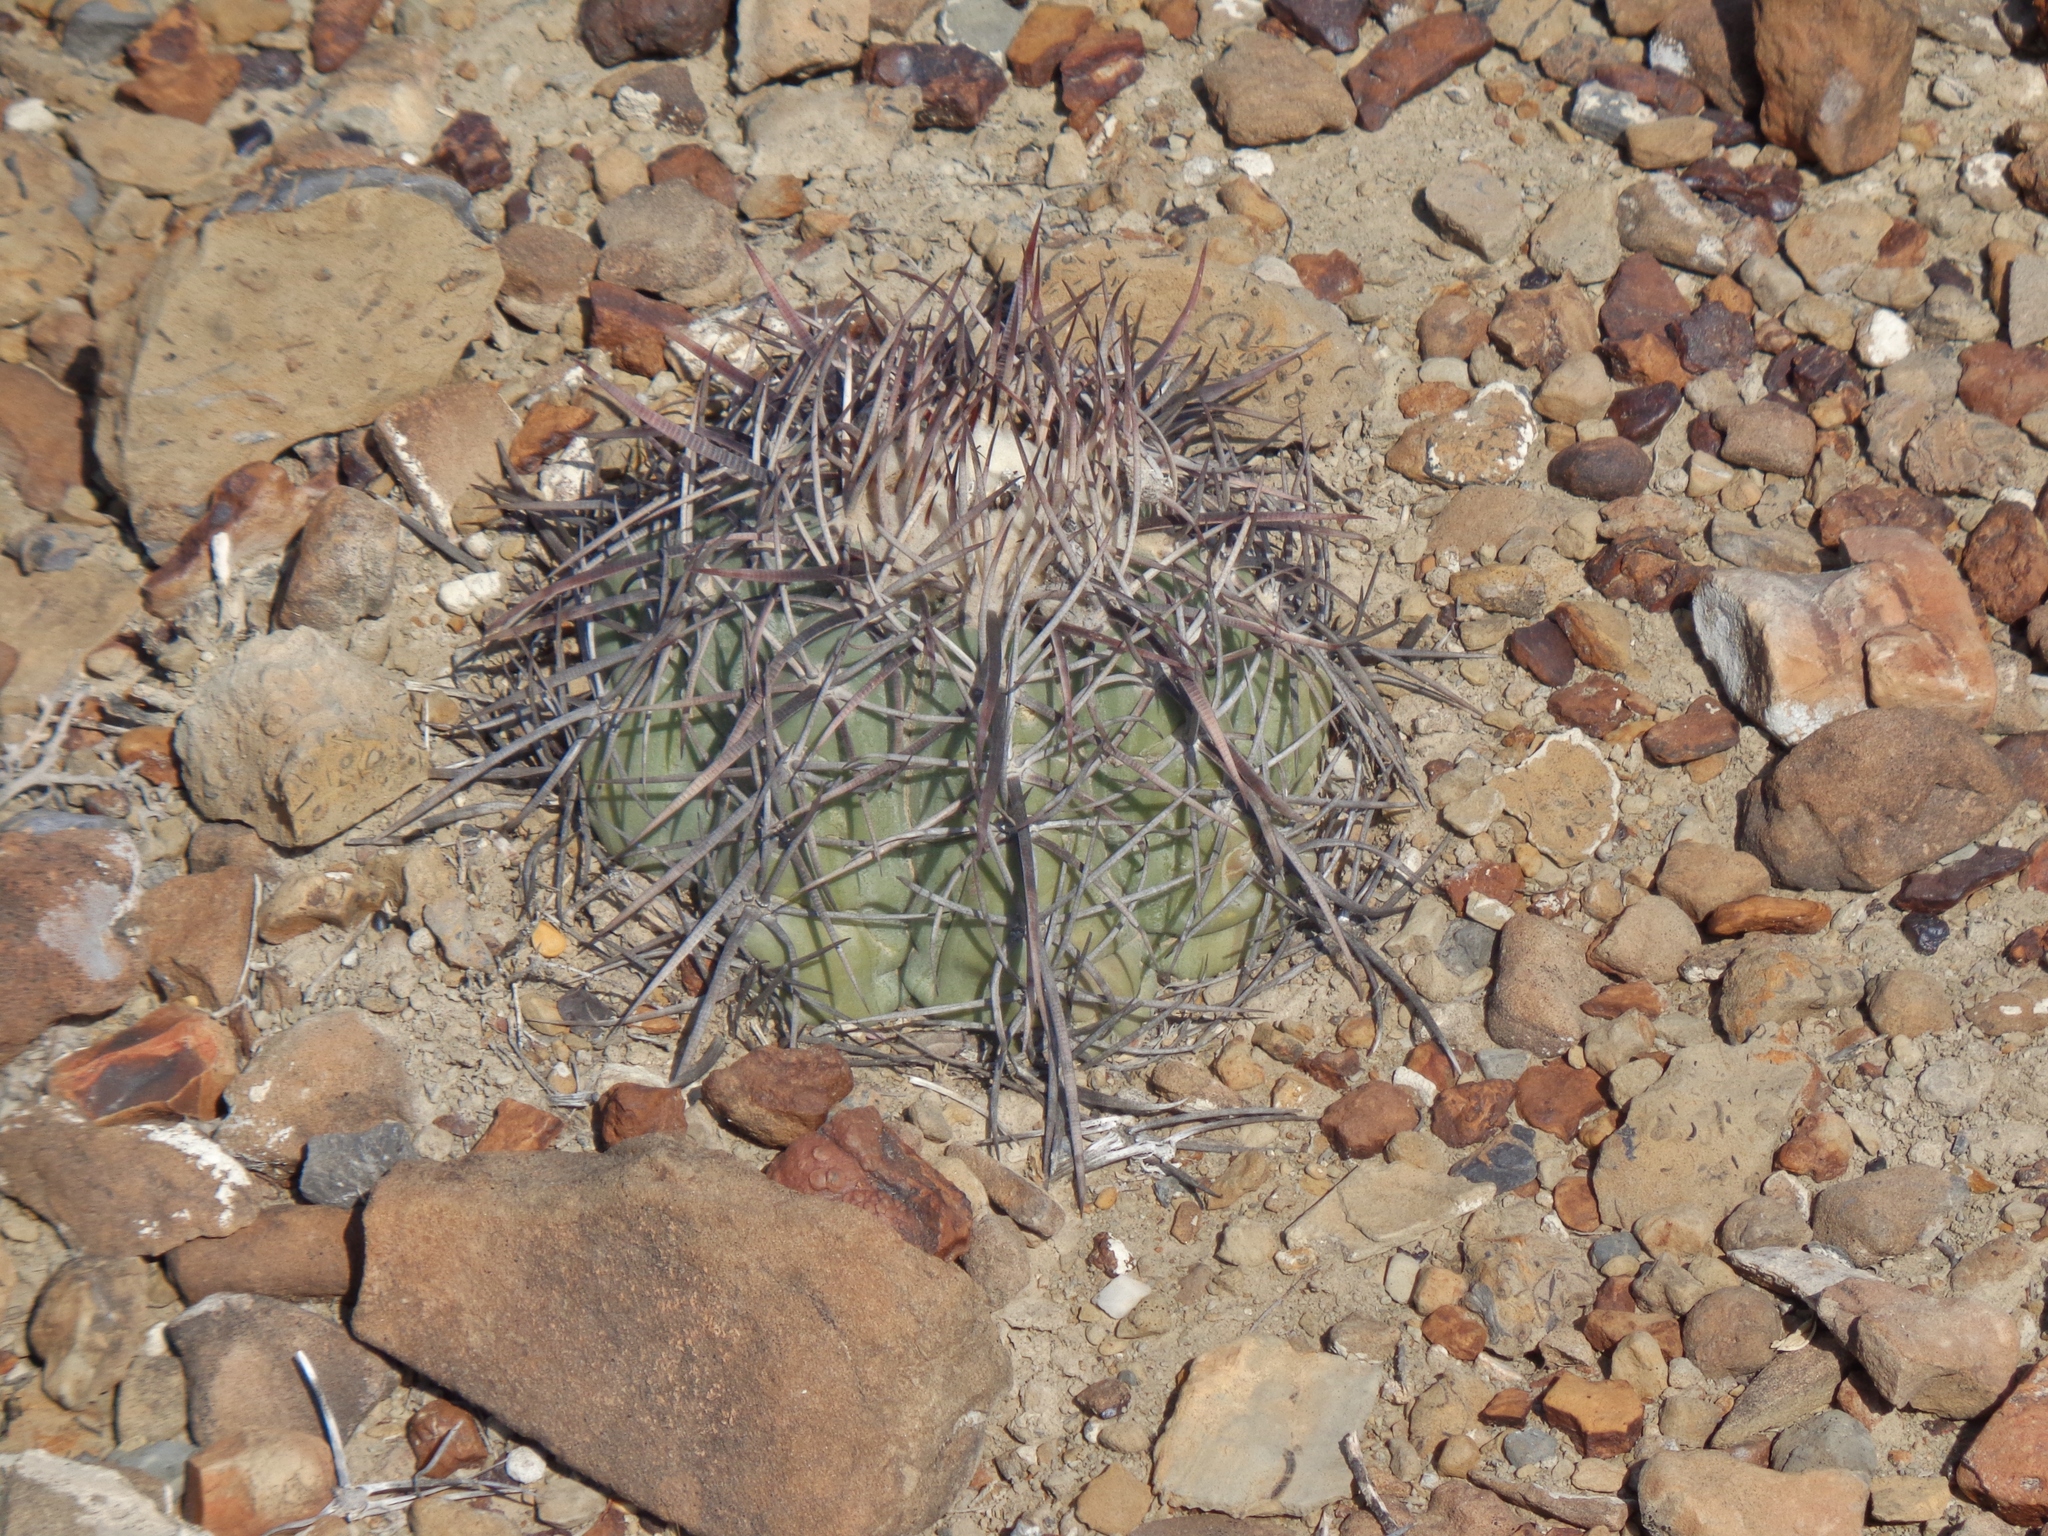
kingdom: Plantae
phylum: Tracheophyta
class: Magnoliopsida
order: Caryophyllales
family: Cactaceae
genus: Echinocactus
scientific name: Echinocactus horizonthalonius
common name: Devilshead
